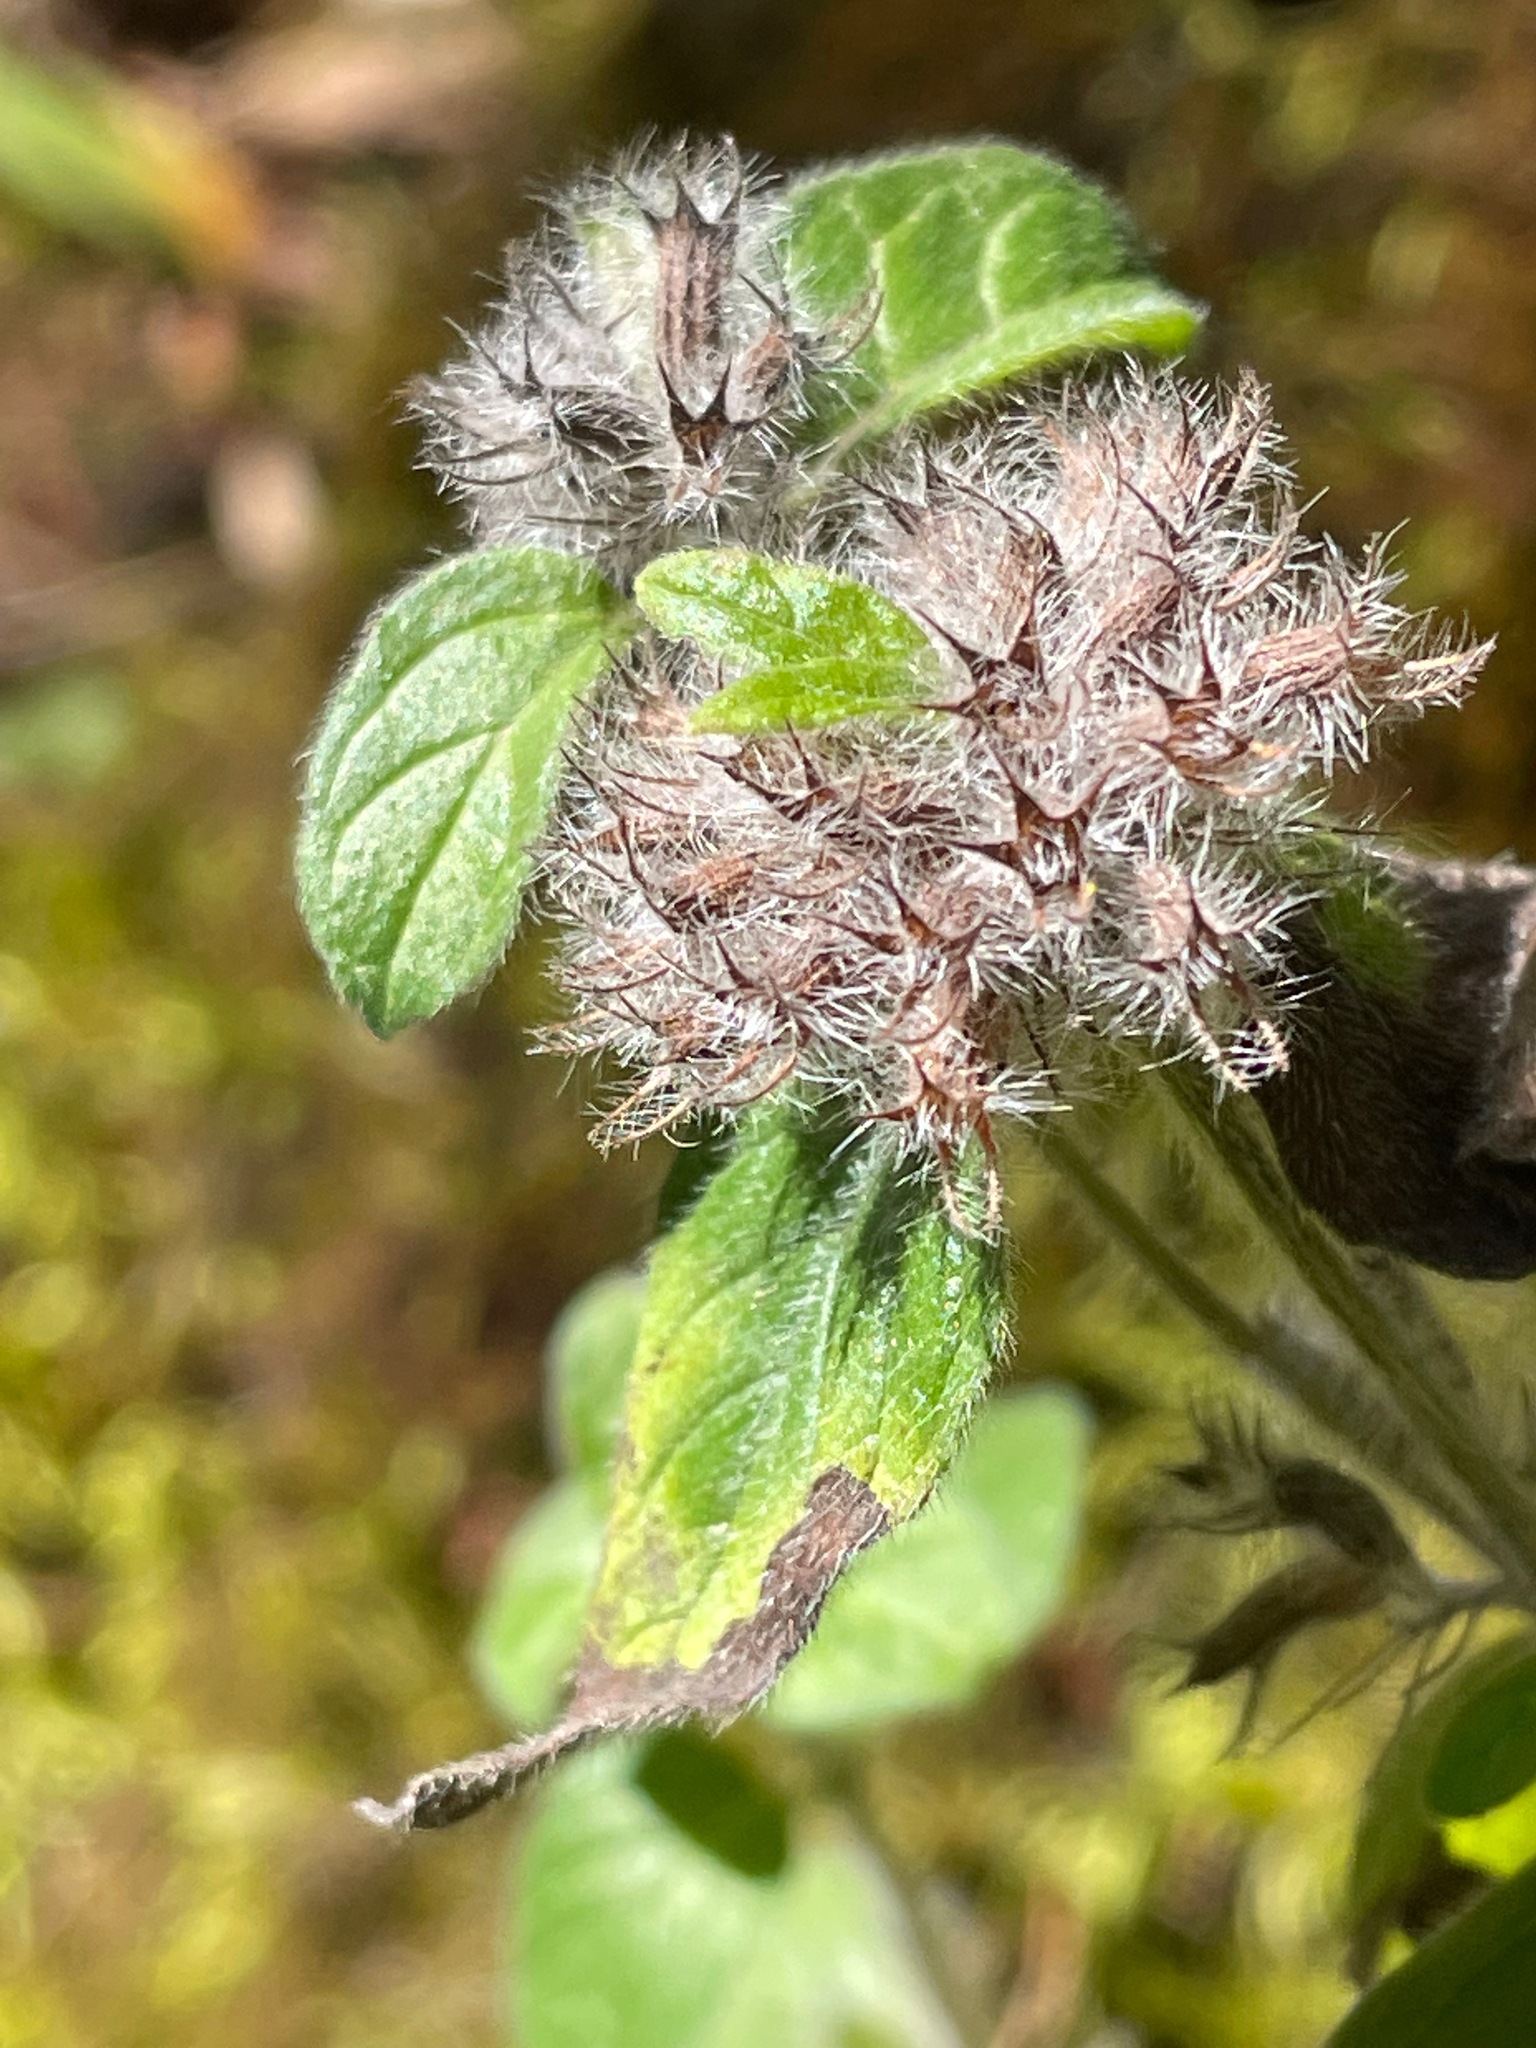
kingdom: Plantae
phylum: Tracheophyta
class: Magnoliopsida
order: Lamiales
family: Lamiaceae
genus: Clinopodium
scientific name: Clinopodium vulgare
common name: Wild basil
